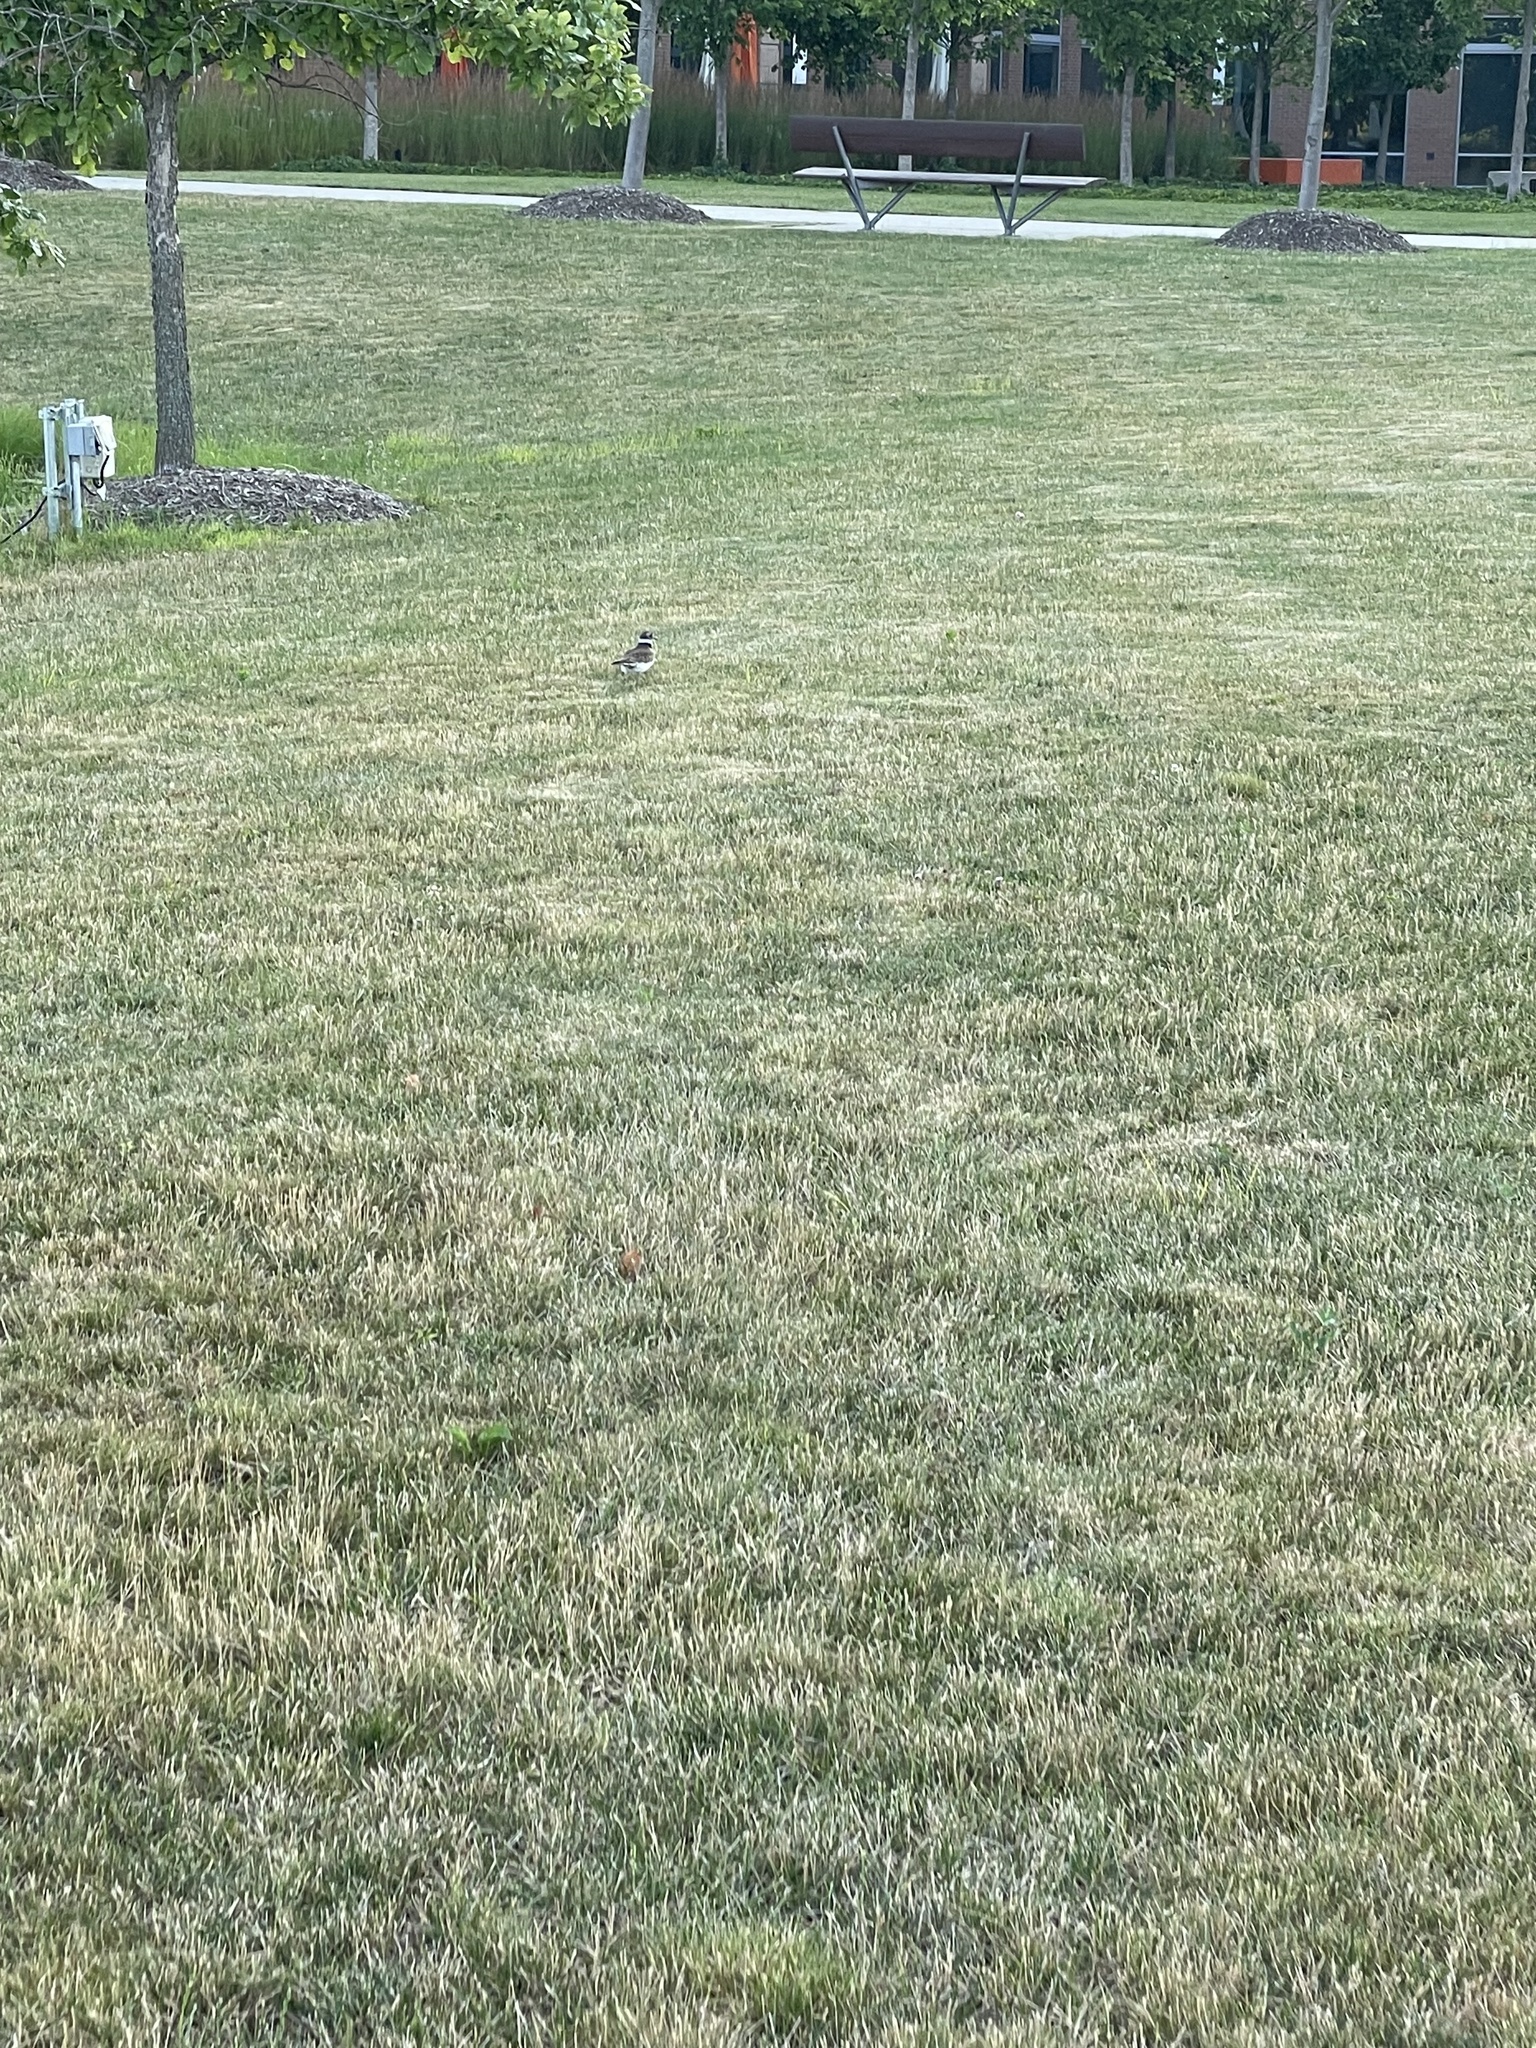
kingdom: Animalia
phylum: Chordata
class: Aves
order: Charadriiformes
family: Charadriidae
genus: Charadrius
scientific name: Charadrius vociferus
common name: Killdeer
